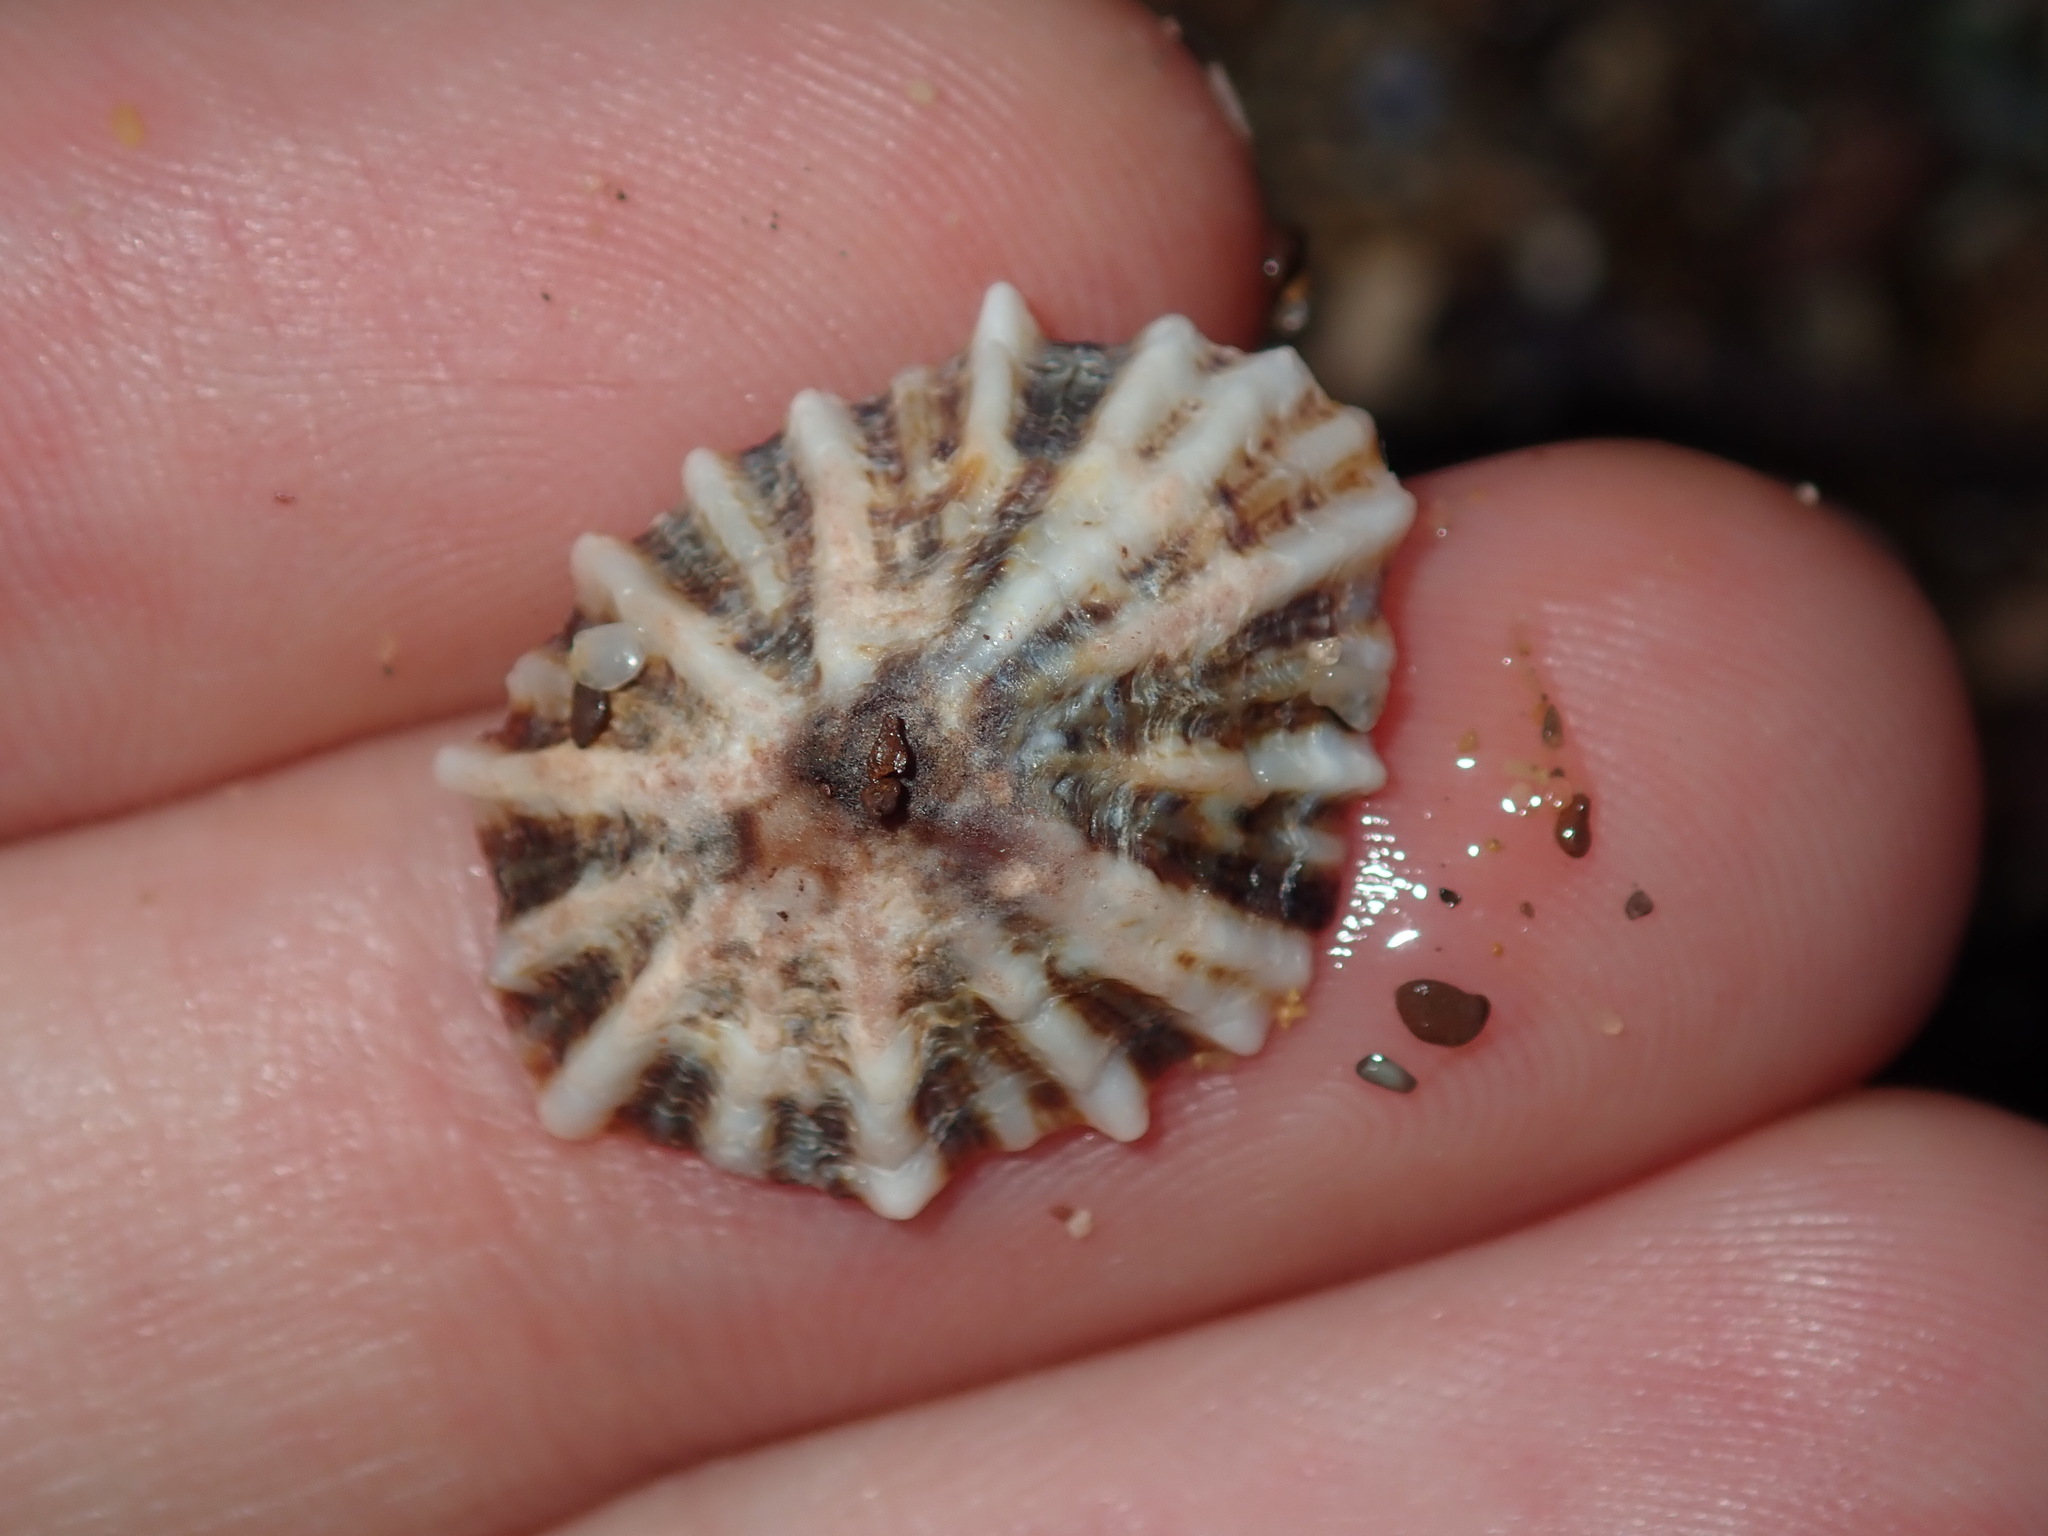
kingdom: Animalia
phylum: Mollusca
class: Gastropoda
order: Siphonariida
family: Siphonariidae
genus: Siphonaria
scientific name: Siphonaria denticulata
